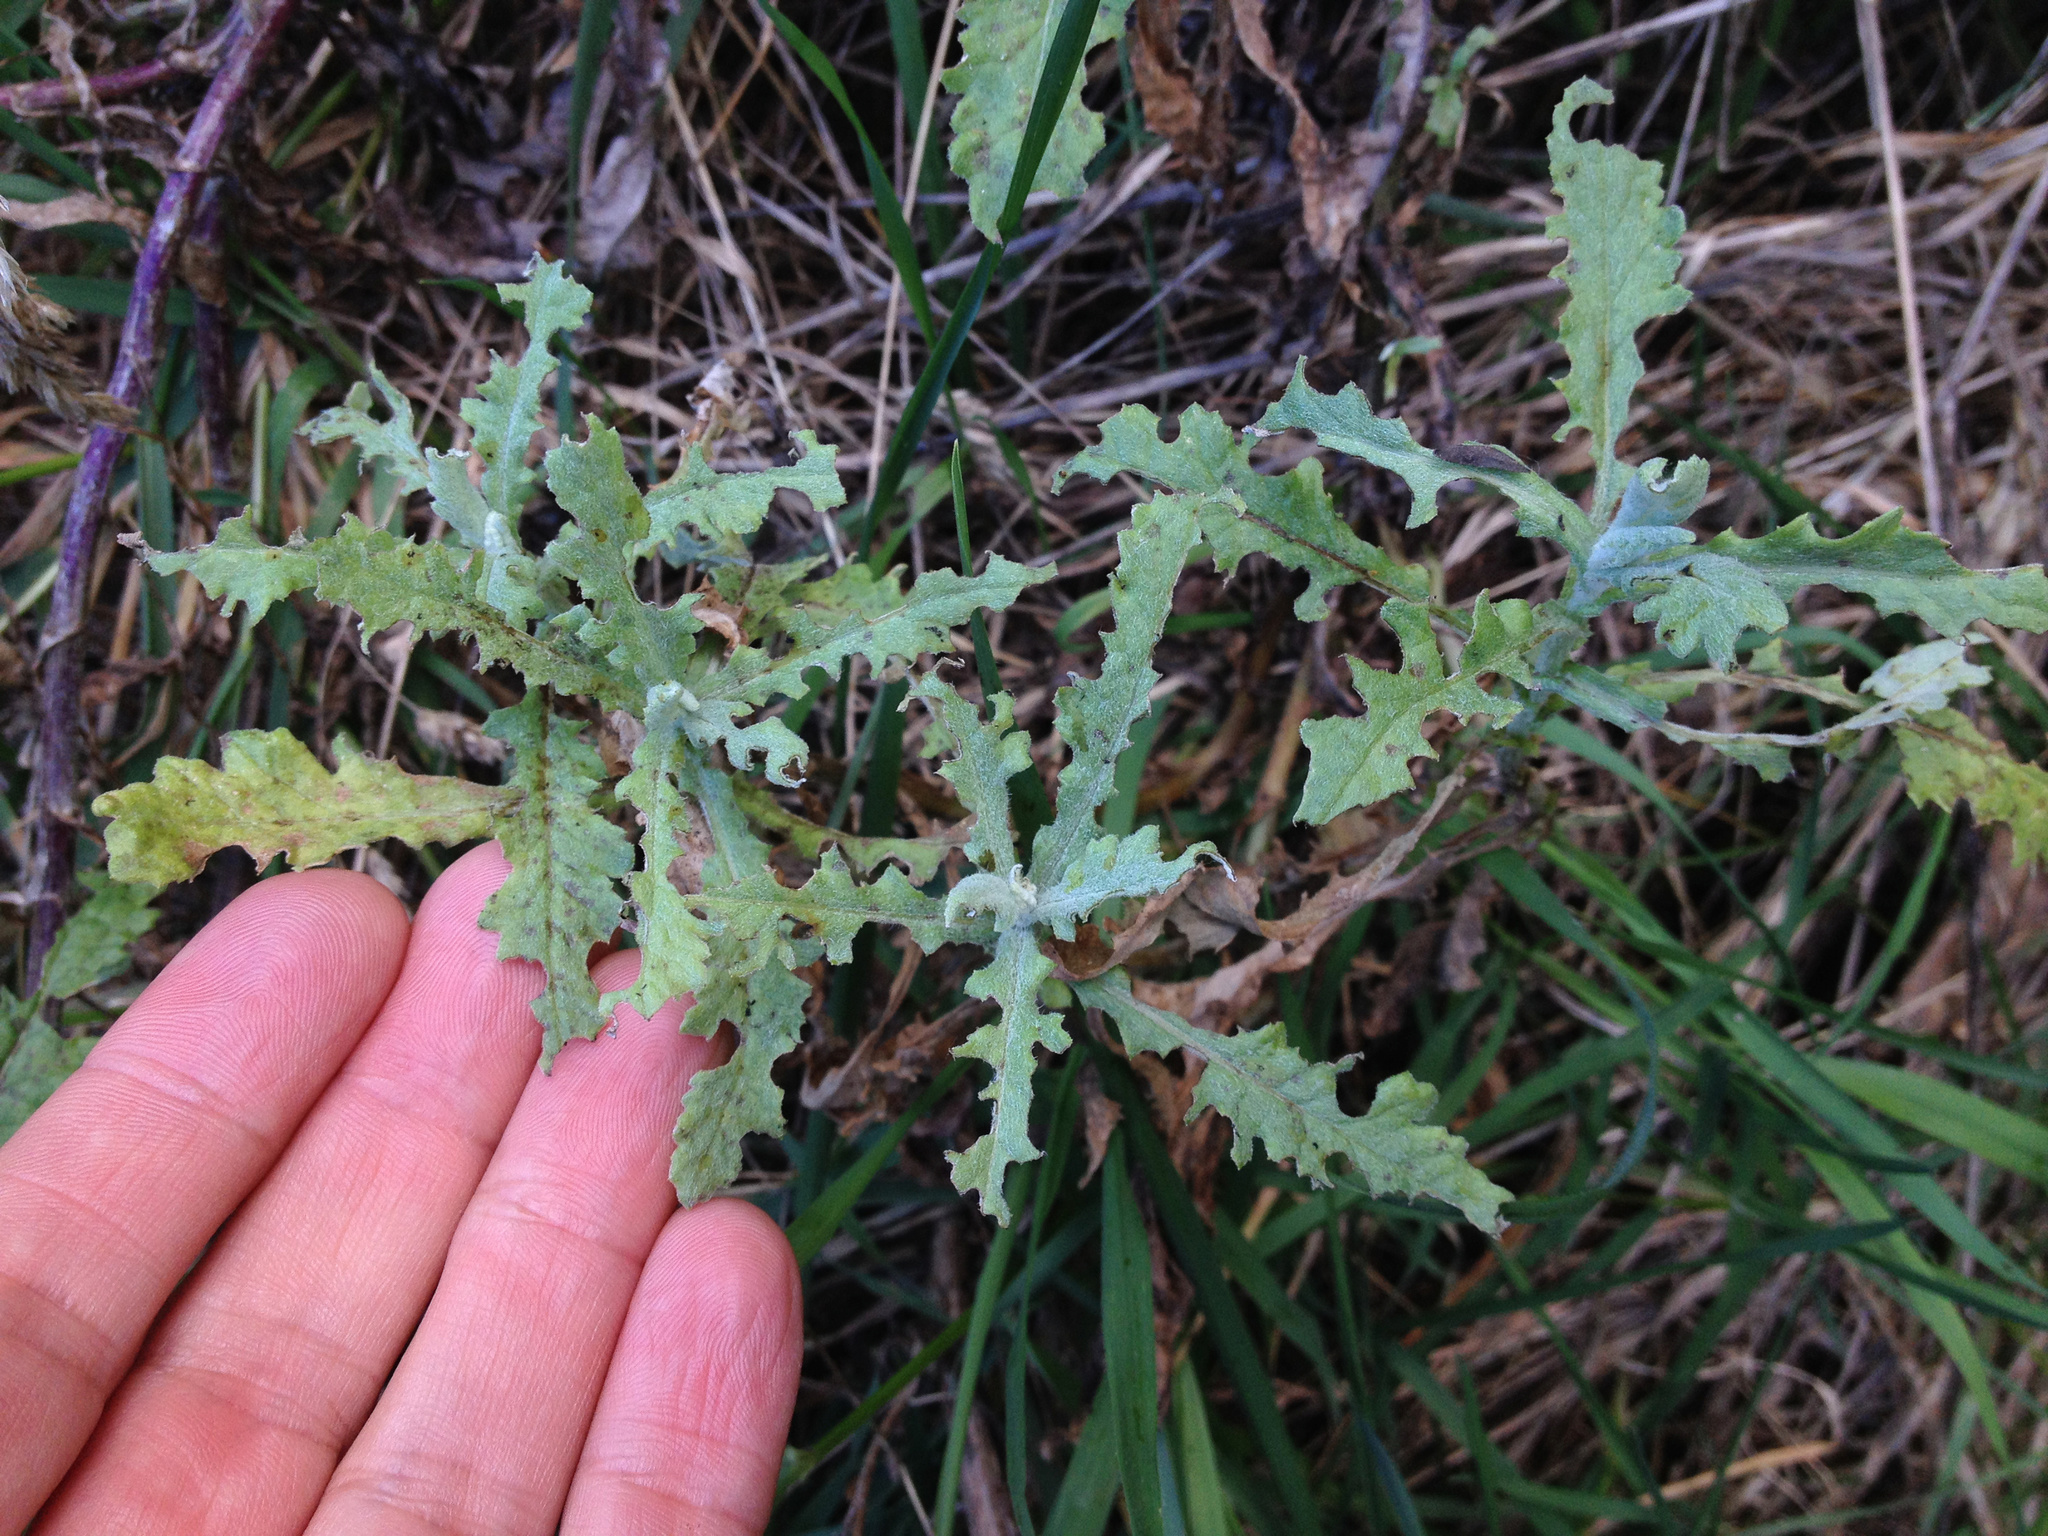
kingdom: Plantae
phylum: Tracheophyta
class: Magnoliopsida
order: Asterales
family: Asteraceae
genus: Senecio
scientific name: Senecio glomeratus
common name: Cutleaf burnweed
